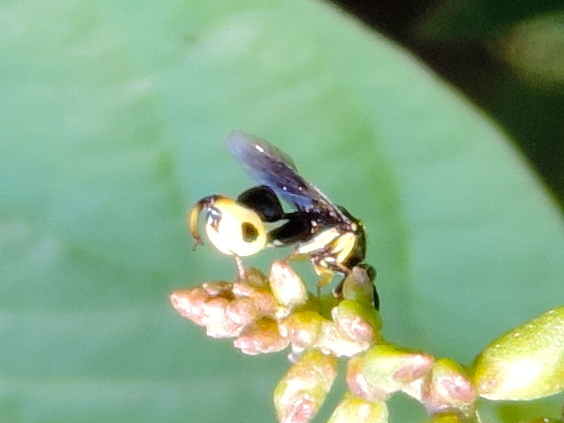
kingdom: Animalia
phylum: Arthropoda
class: Insecta
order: Hymenoptera
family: Chalcididae
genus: Conura
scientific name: Conura
